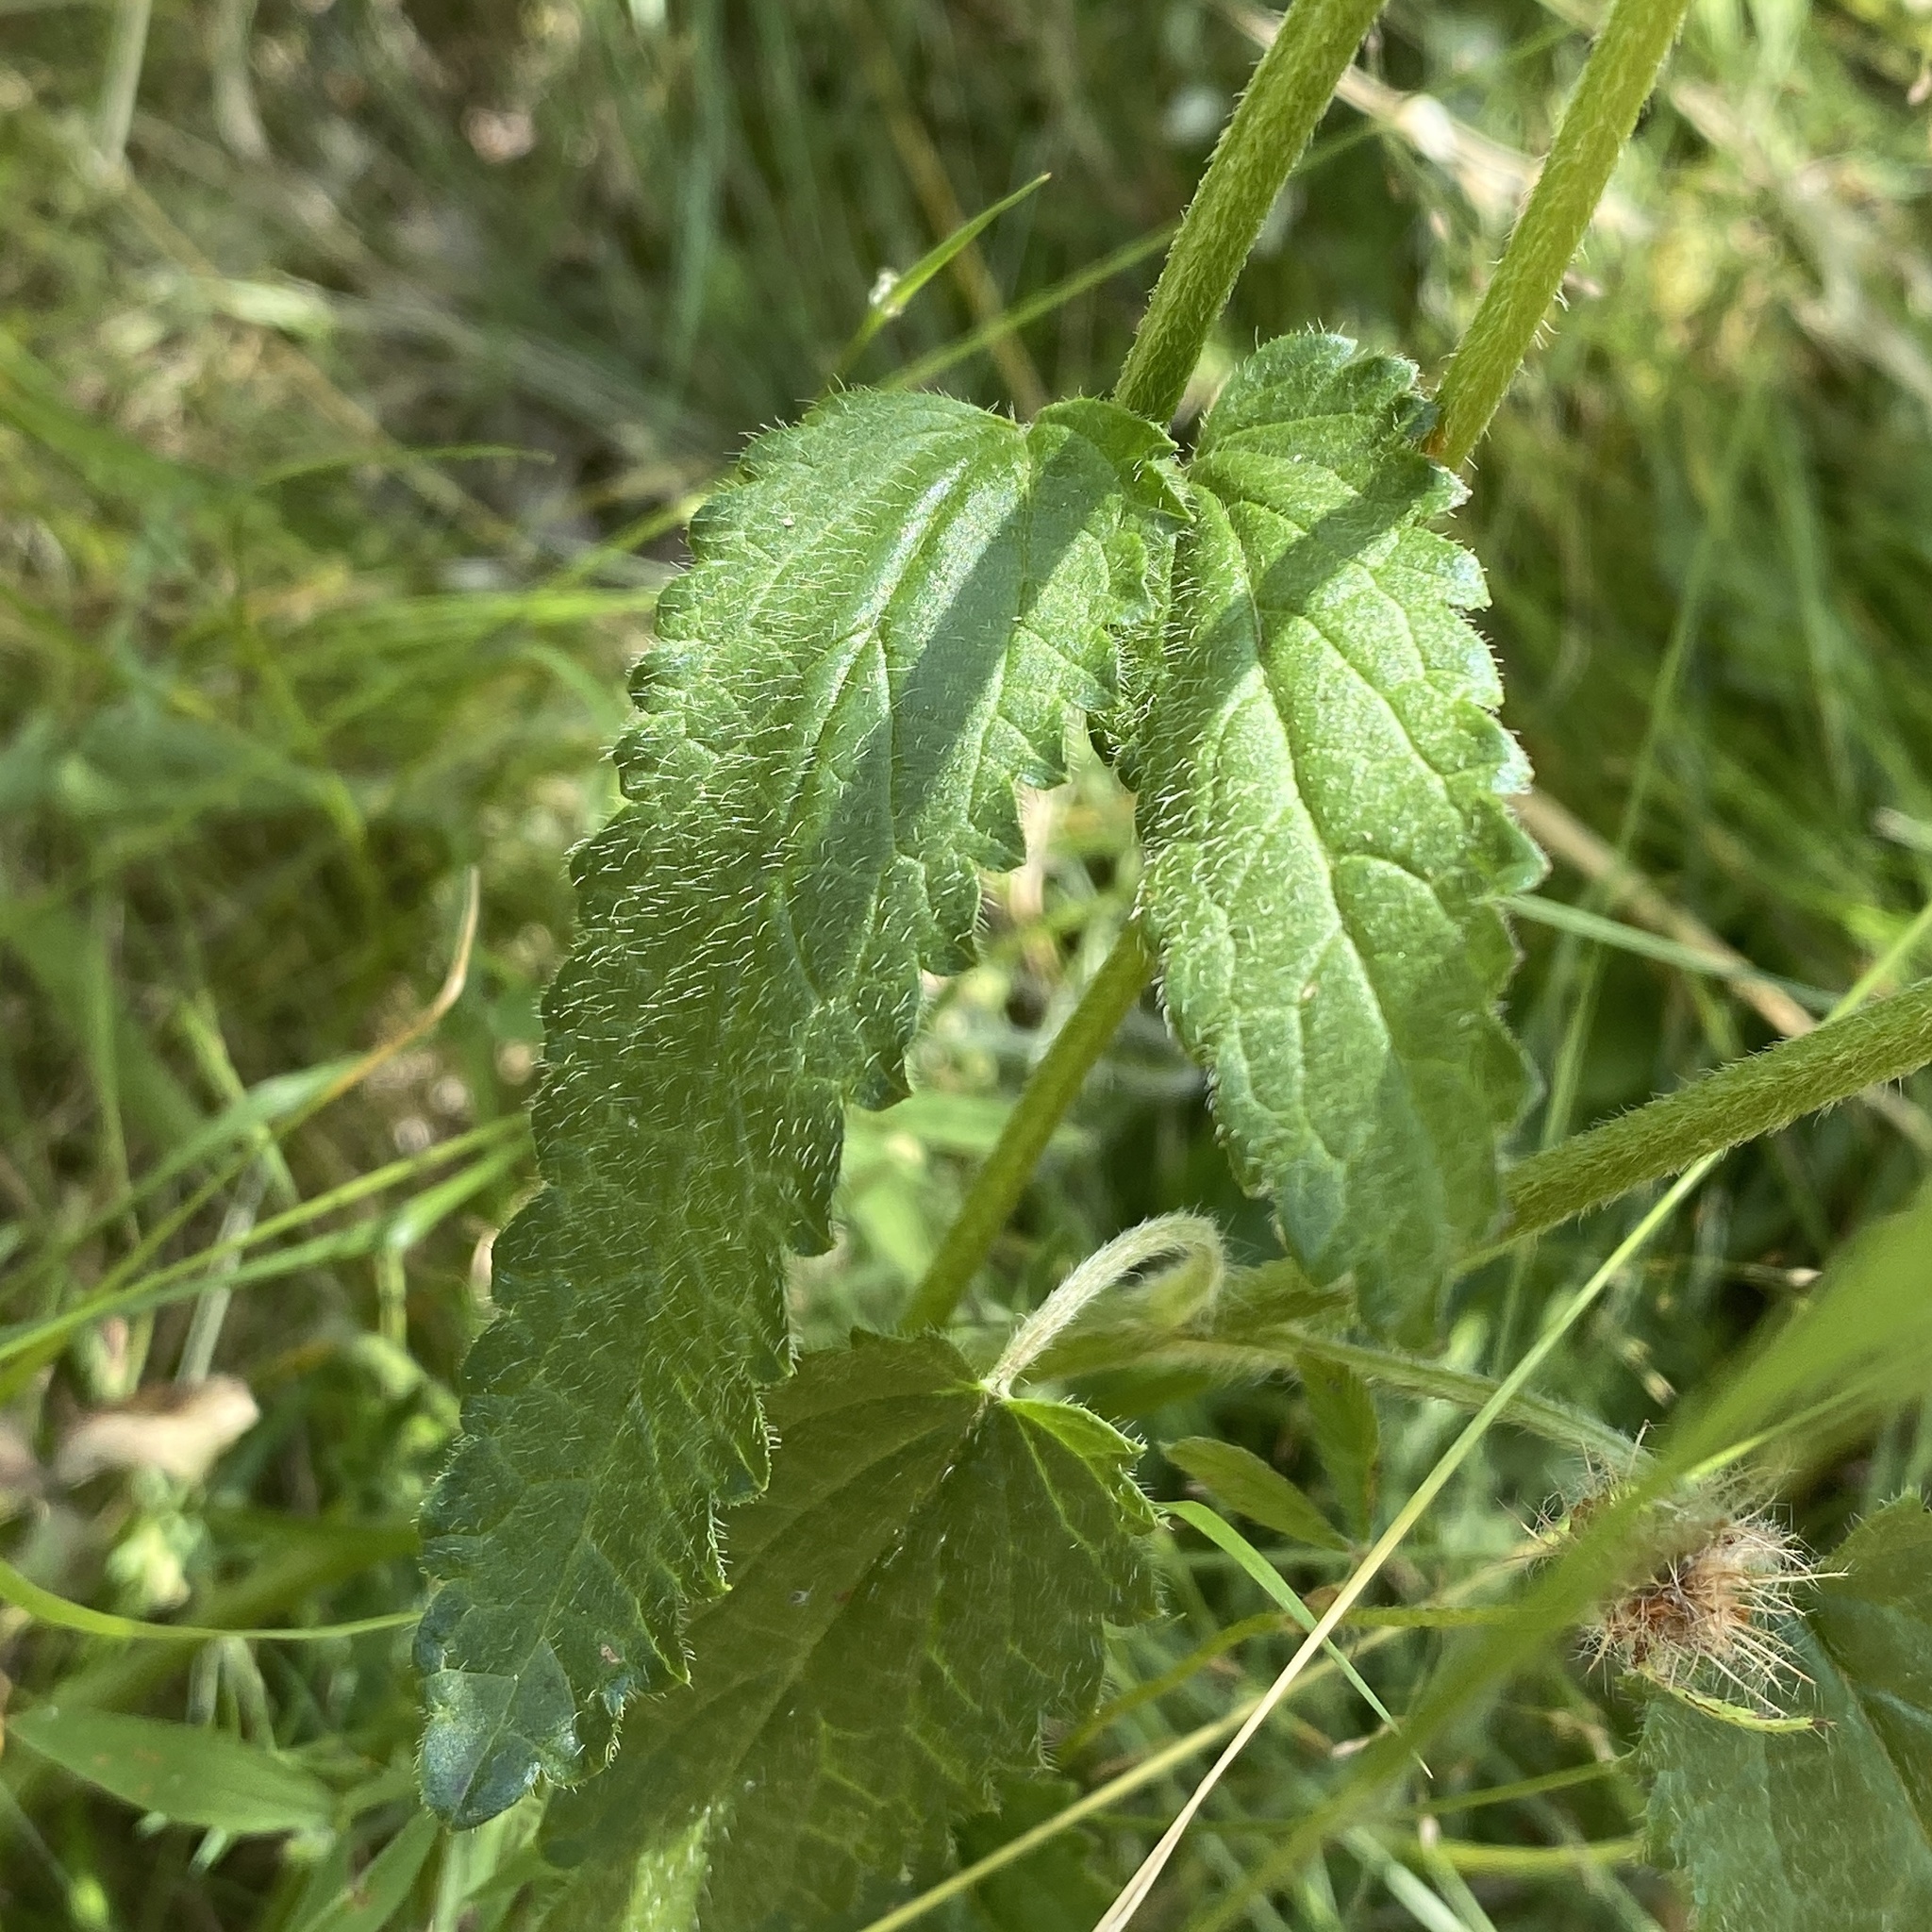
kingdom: Plantae
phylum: Tracheophyta
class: Magnoliopsida
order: Lamiales
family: Lamiaceae
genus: Betonica
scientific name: Betonica officinalis
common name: Bishop's-wort
